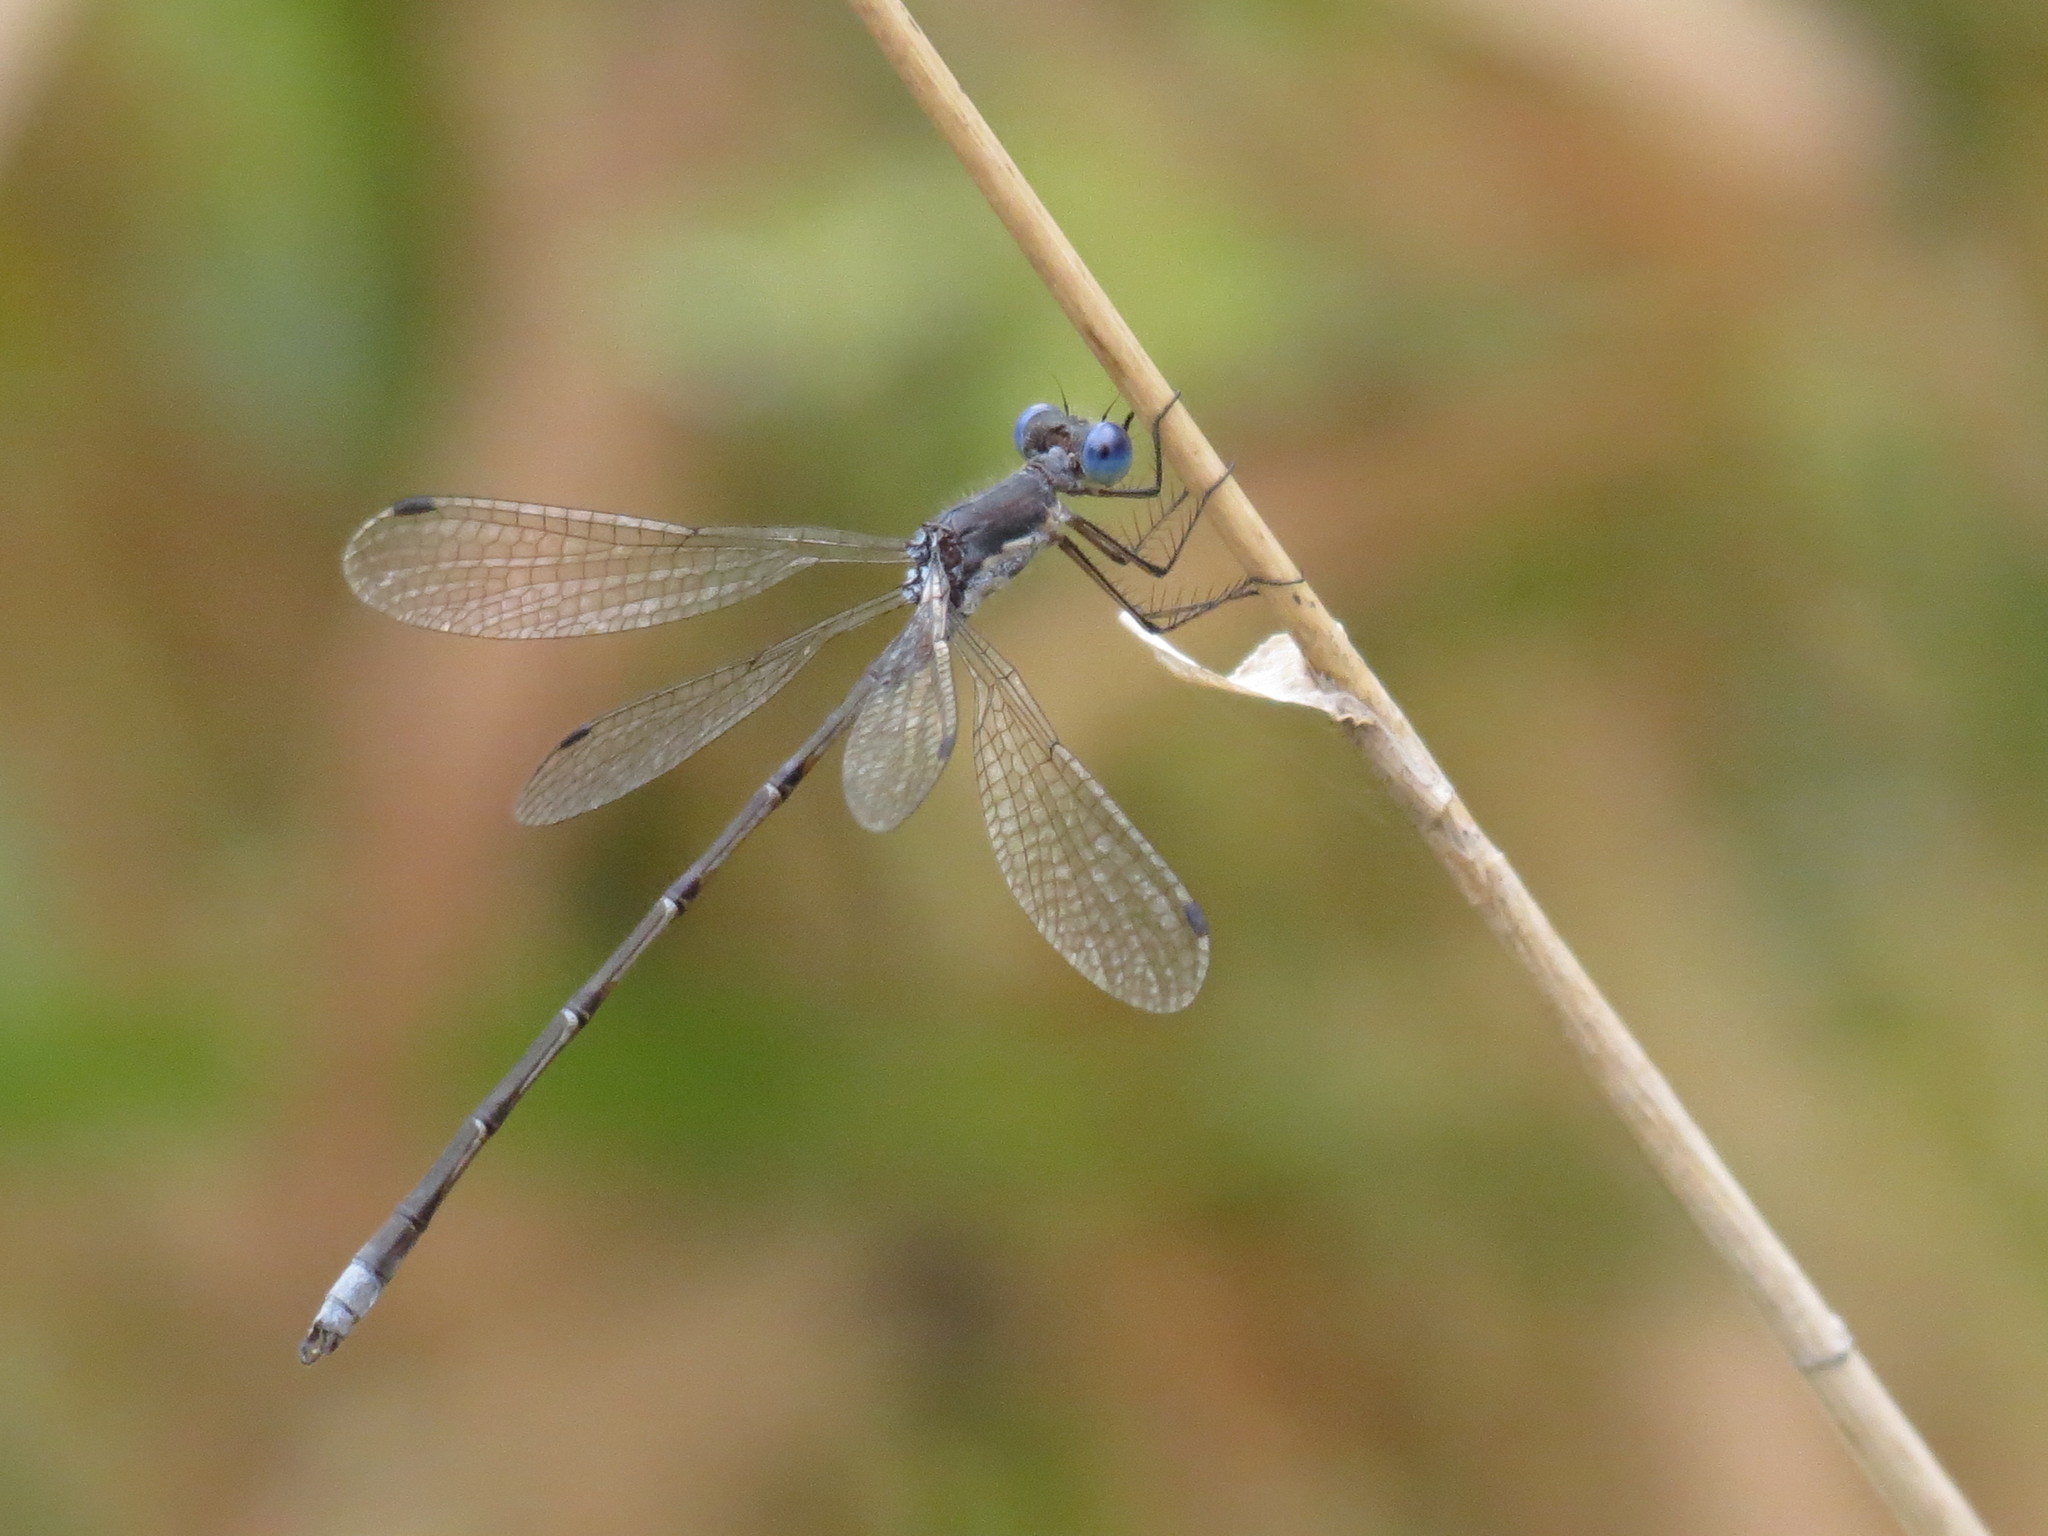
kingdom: Animalia
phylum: Arthropoda
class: Insecta
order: Odonata
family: Lestidae
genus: Lestes
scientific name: Lestes congener
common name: Spotted spreadwing
